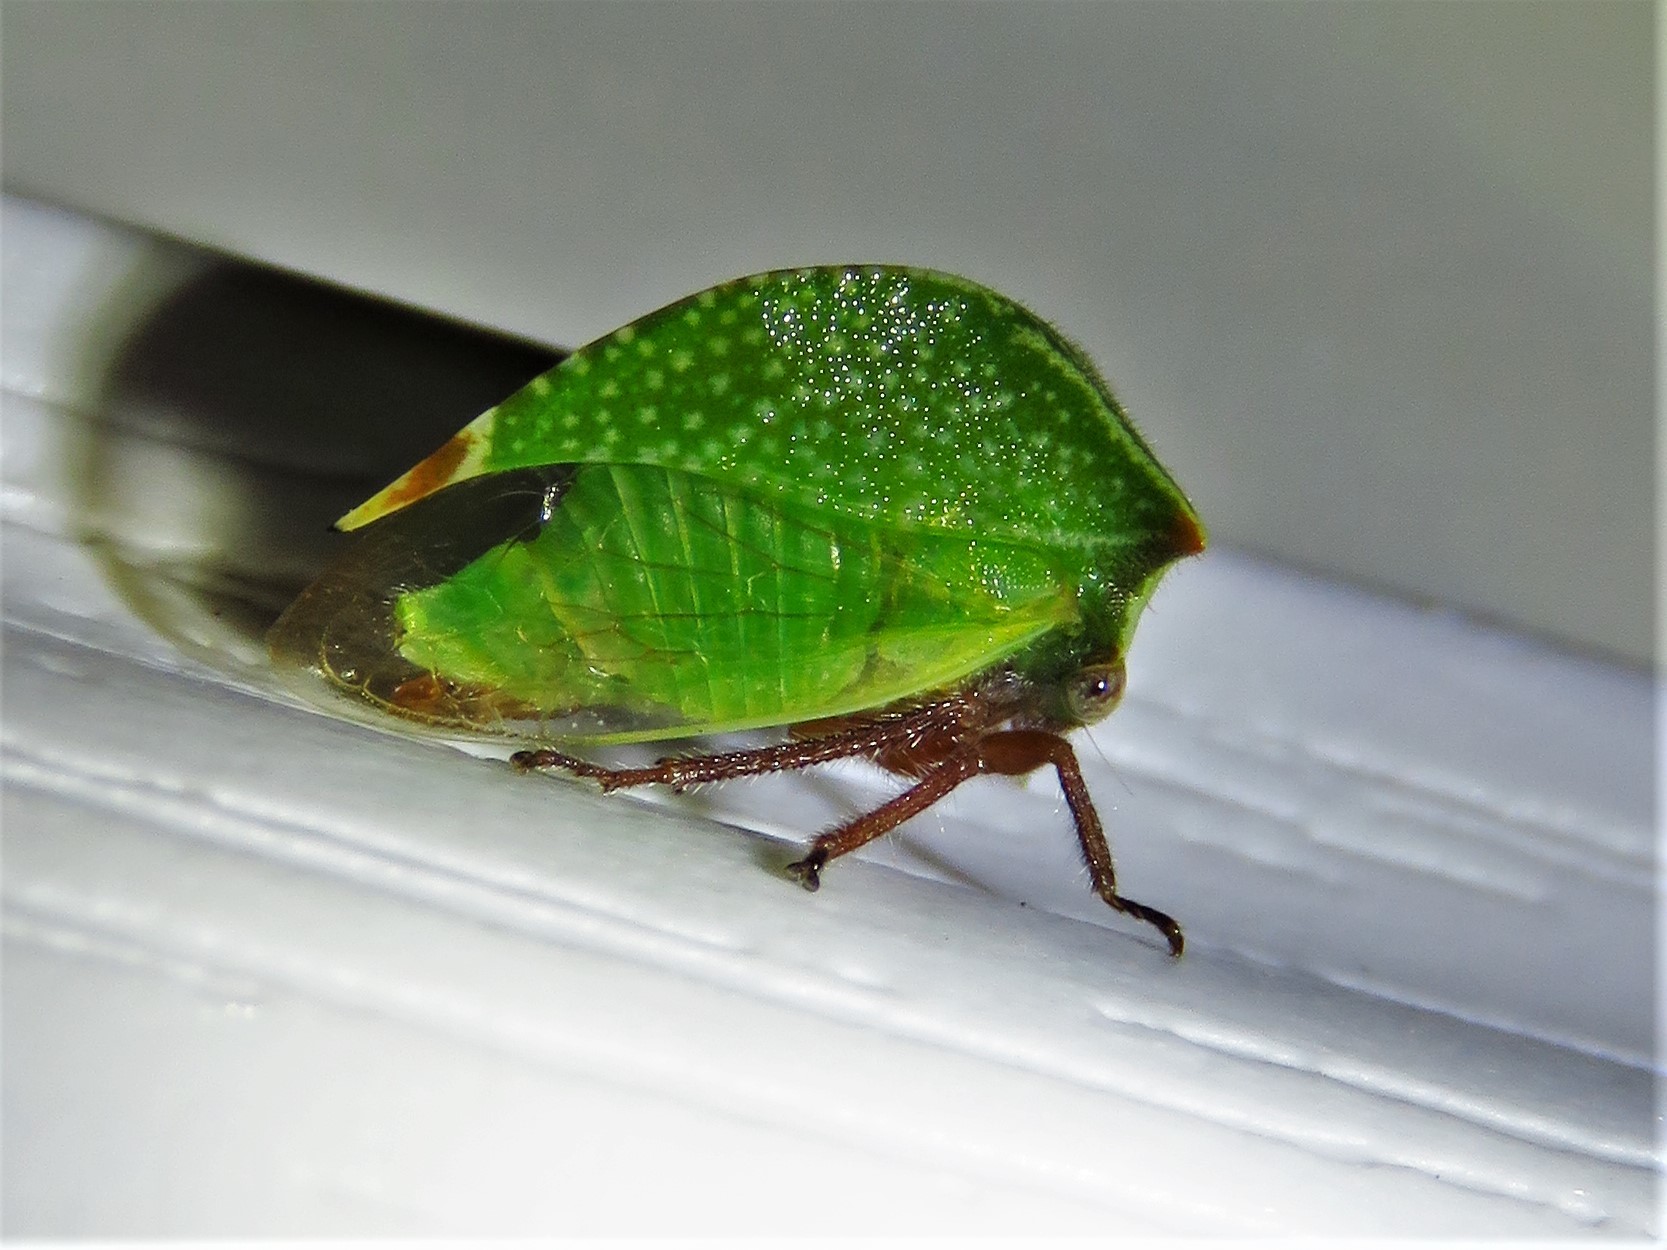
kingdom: Animalia
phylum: Arthropoda
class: Insecta
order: Hemiptera
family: Membracidae
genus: Tortistilus
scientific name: Tortistilus abnorma
